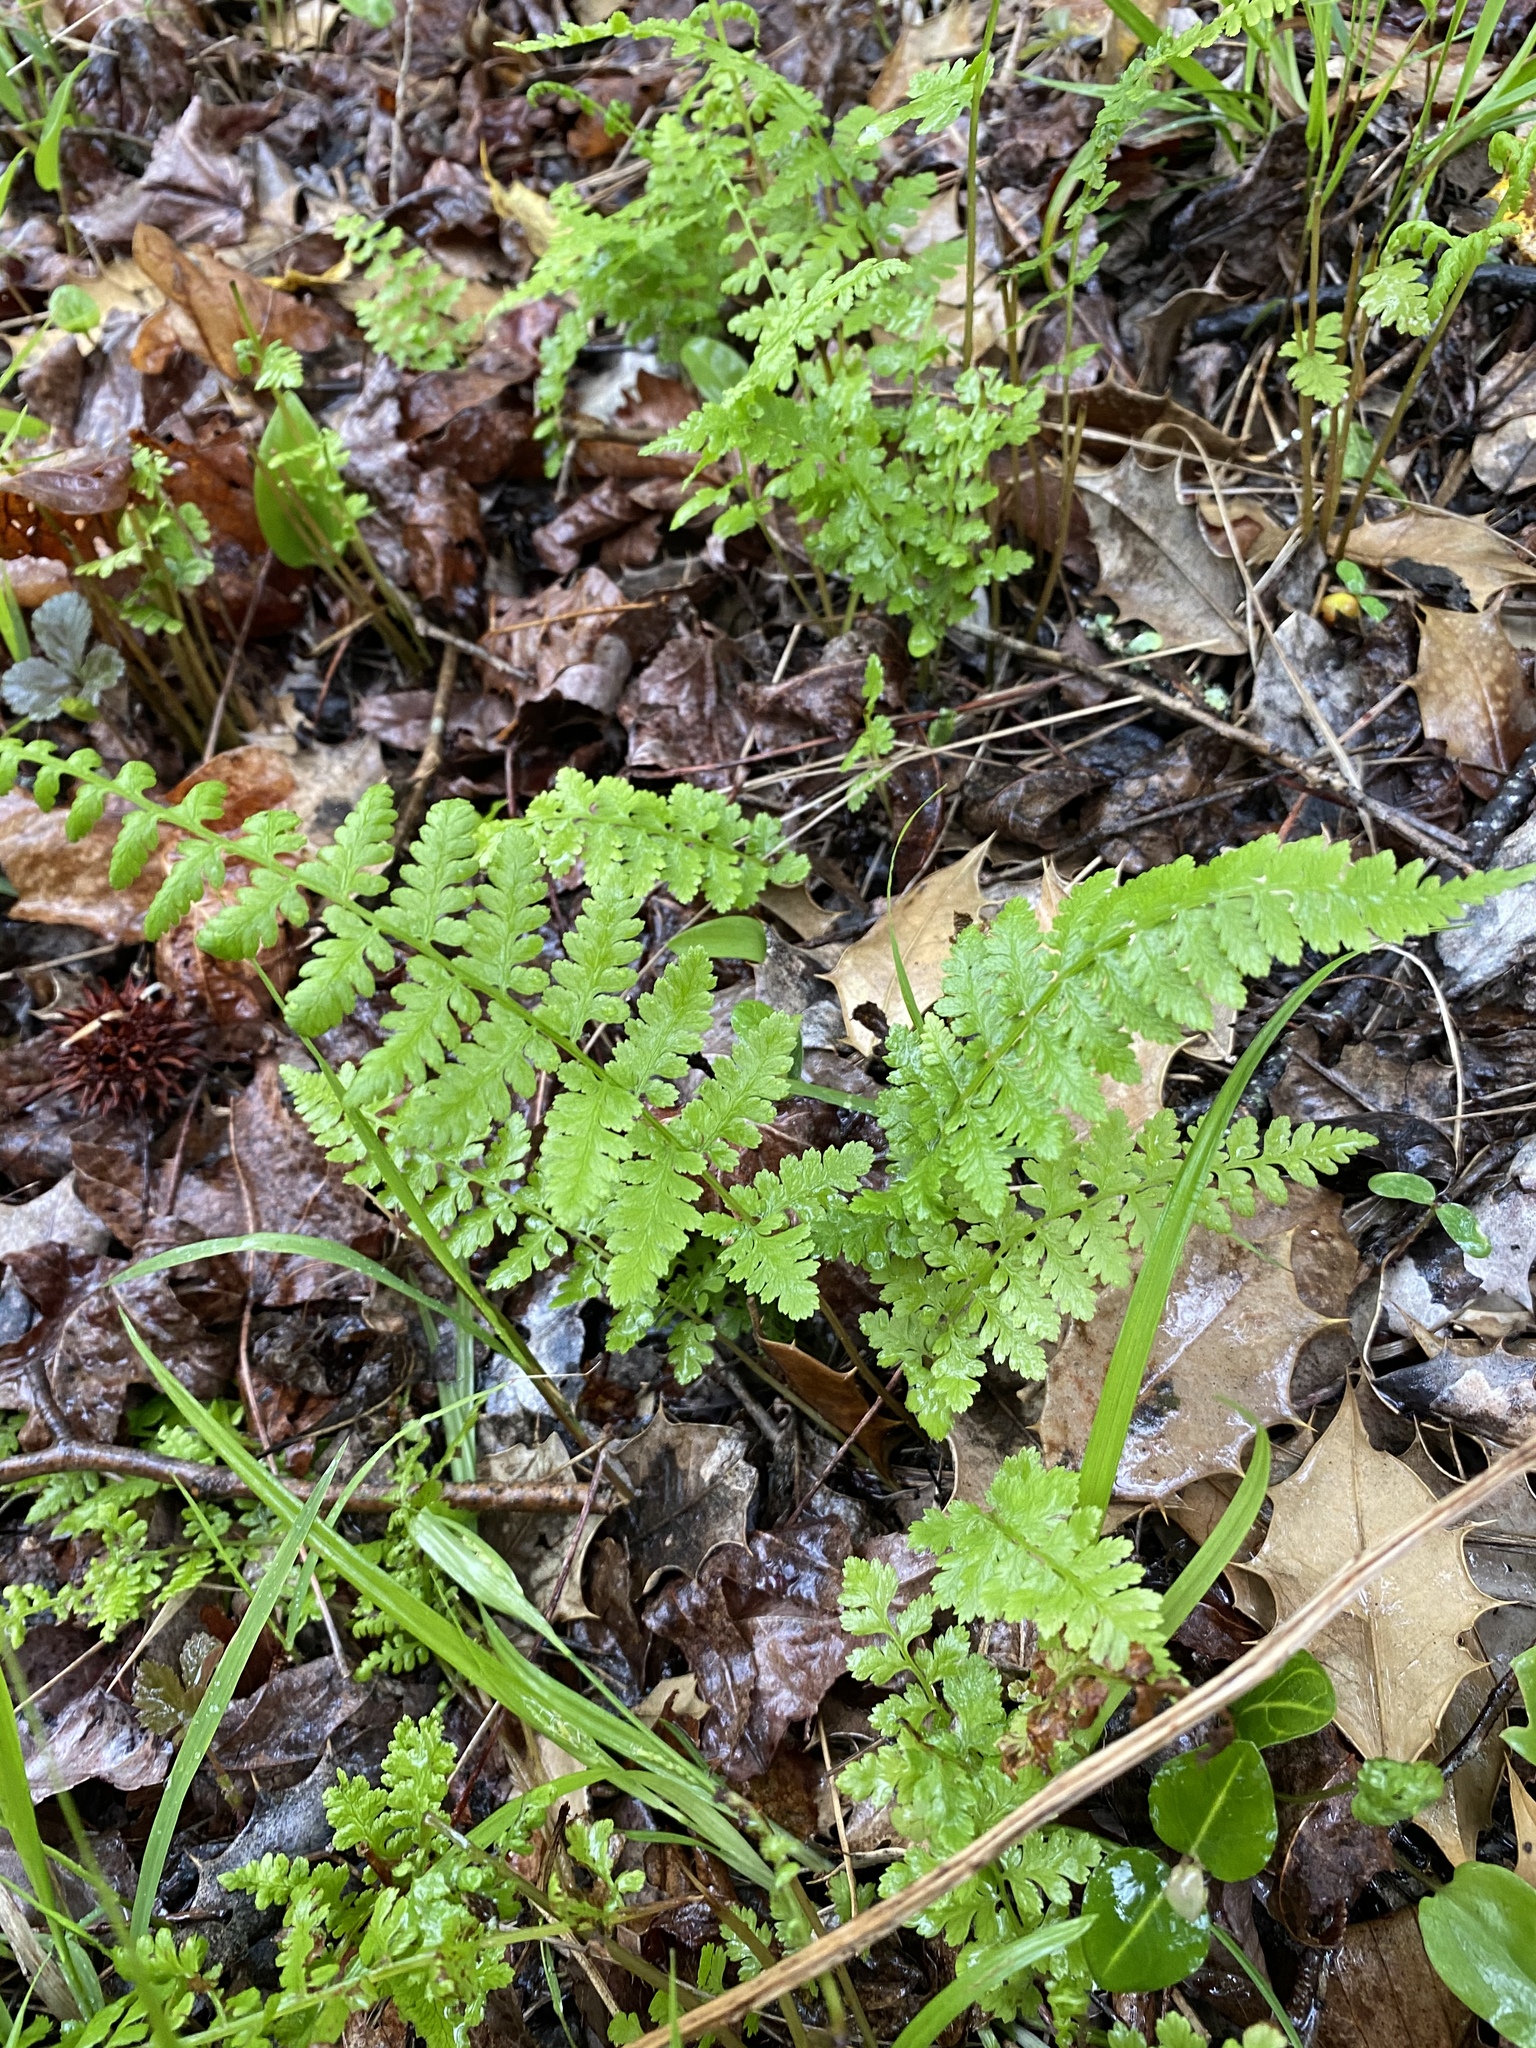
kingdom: Plantae
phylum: Tracheophyta
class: Polypodiopsida
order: Polypodiales
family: Athyriaceae
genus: Athyrium
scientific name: Athyrium angustum
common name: Northern lady fern
